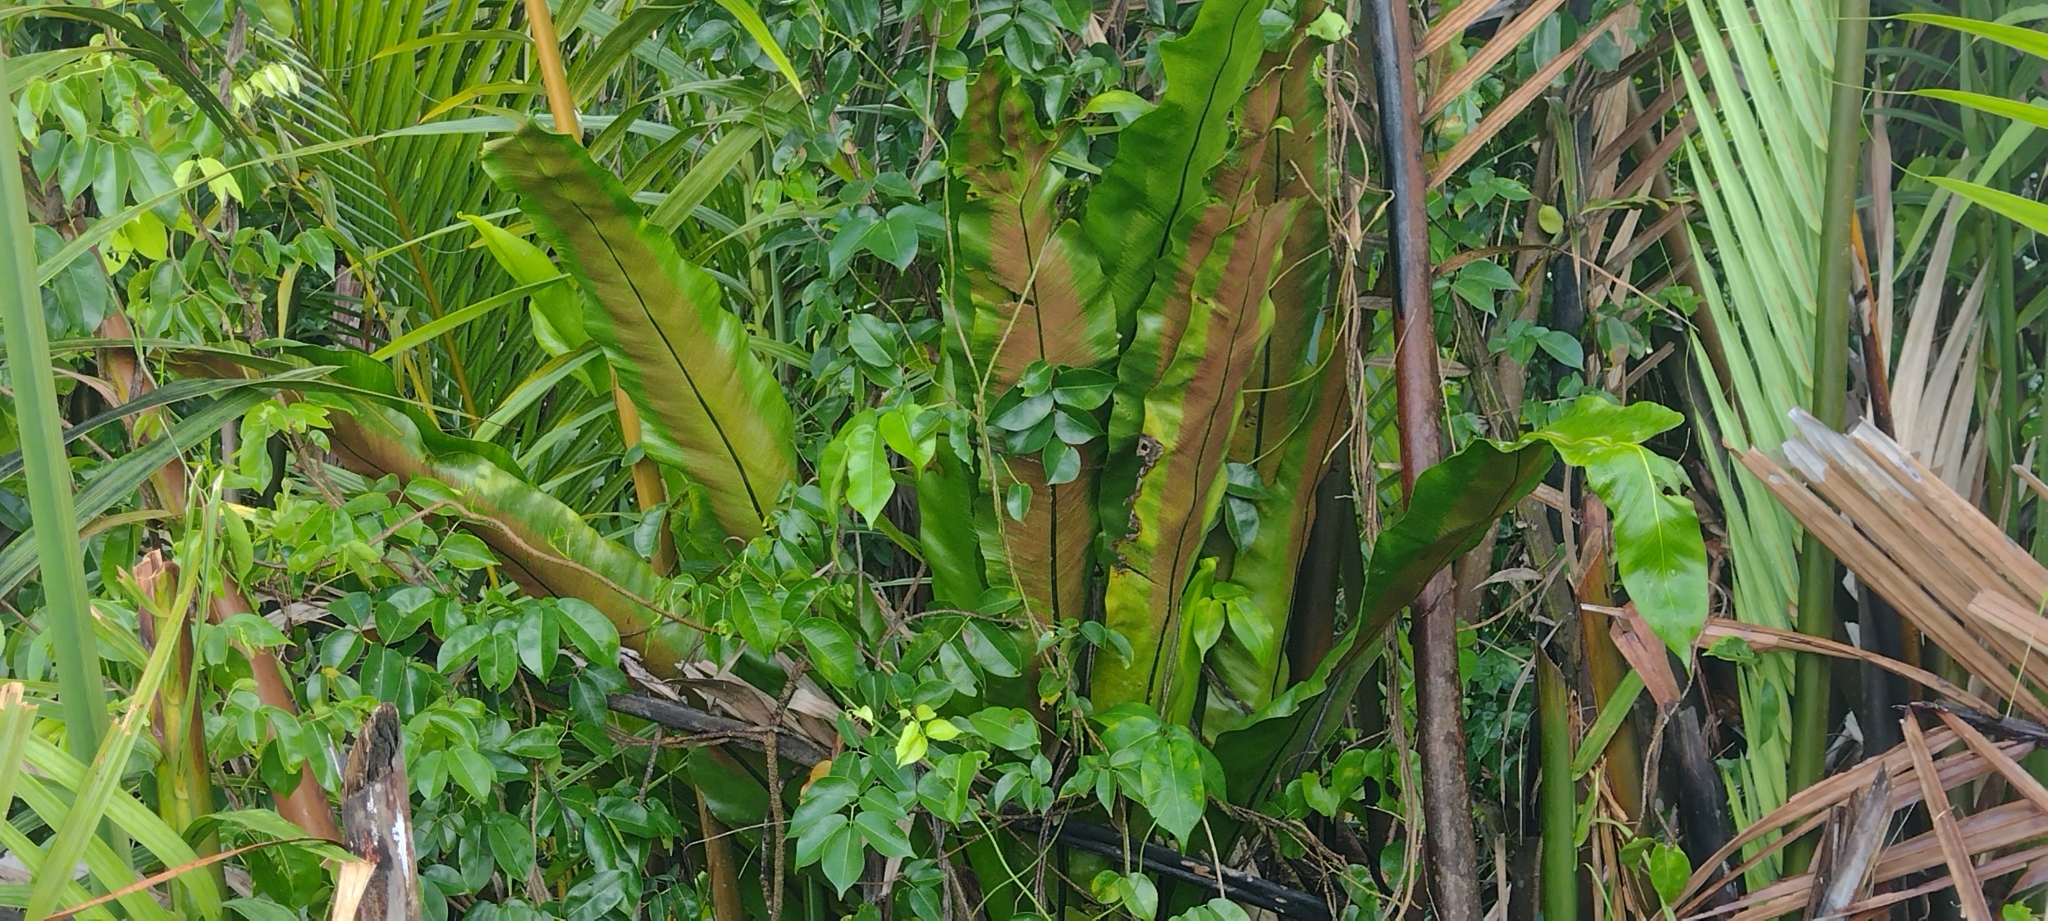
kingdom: Plantae
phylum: Tracheophyta
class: Polypodiopsida
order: Polypodiales
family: Aspleniaceae
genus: Asplenium
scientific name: Asplenium nidus
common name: Bird's-nest fern
